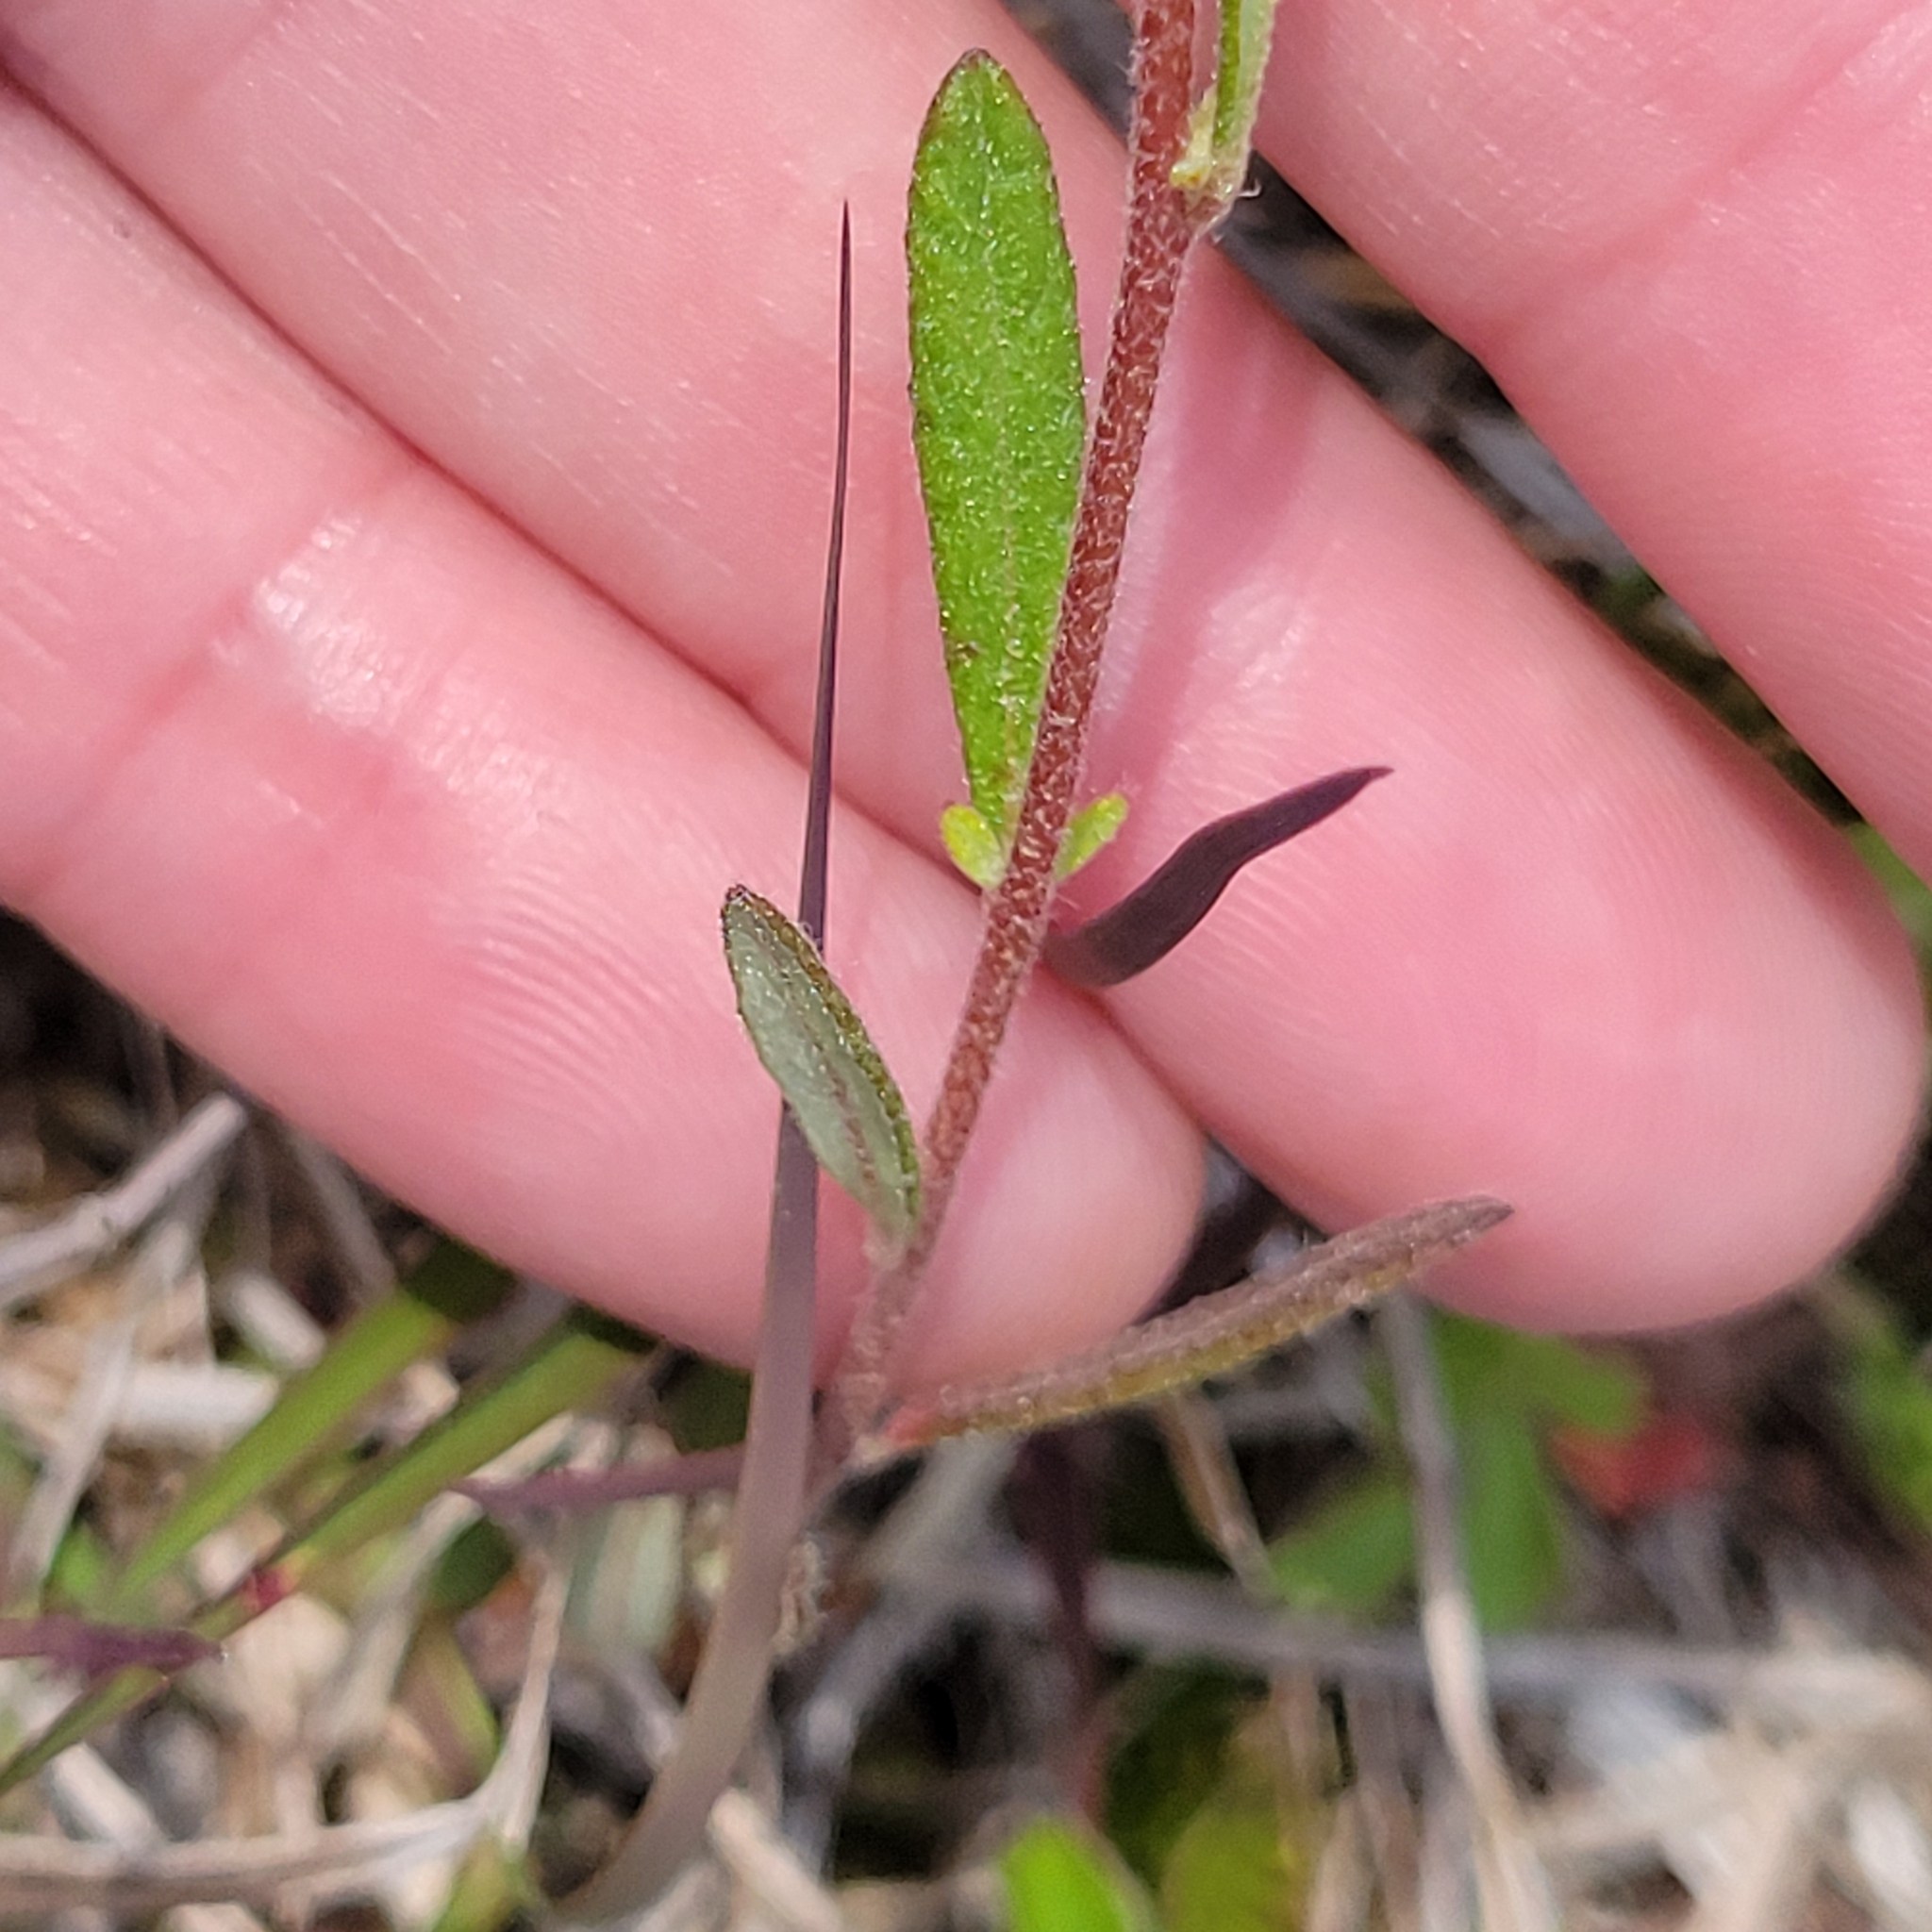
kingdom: Plantae
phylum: Tracheophyta
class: Magnoliopsida
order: Malvales
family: Cistaceae
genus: Crocanthemum
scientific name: Crocanthemum canadense
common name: Canada frostweed
